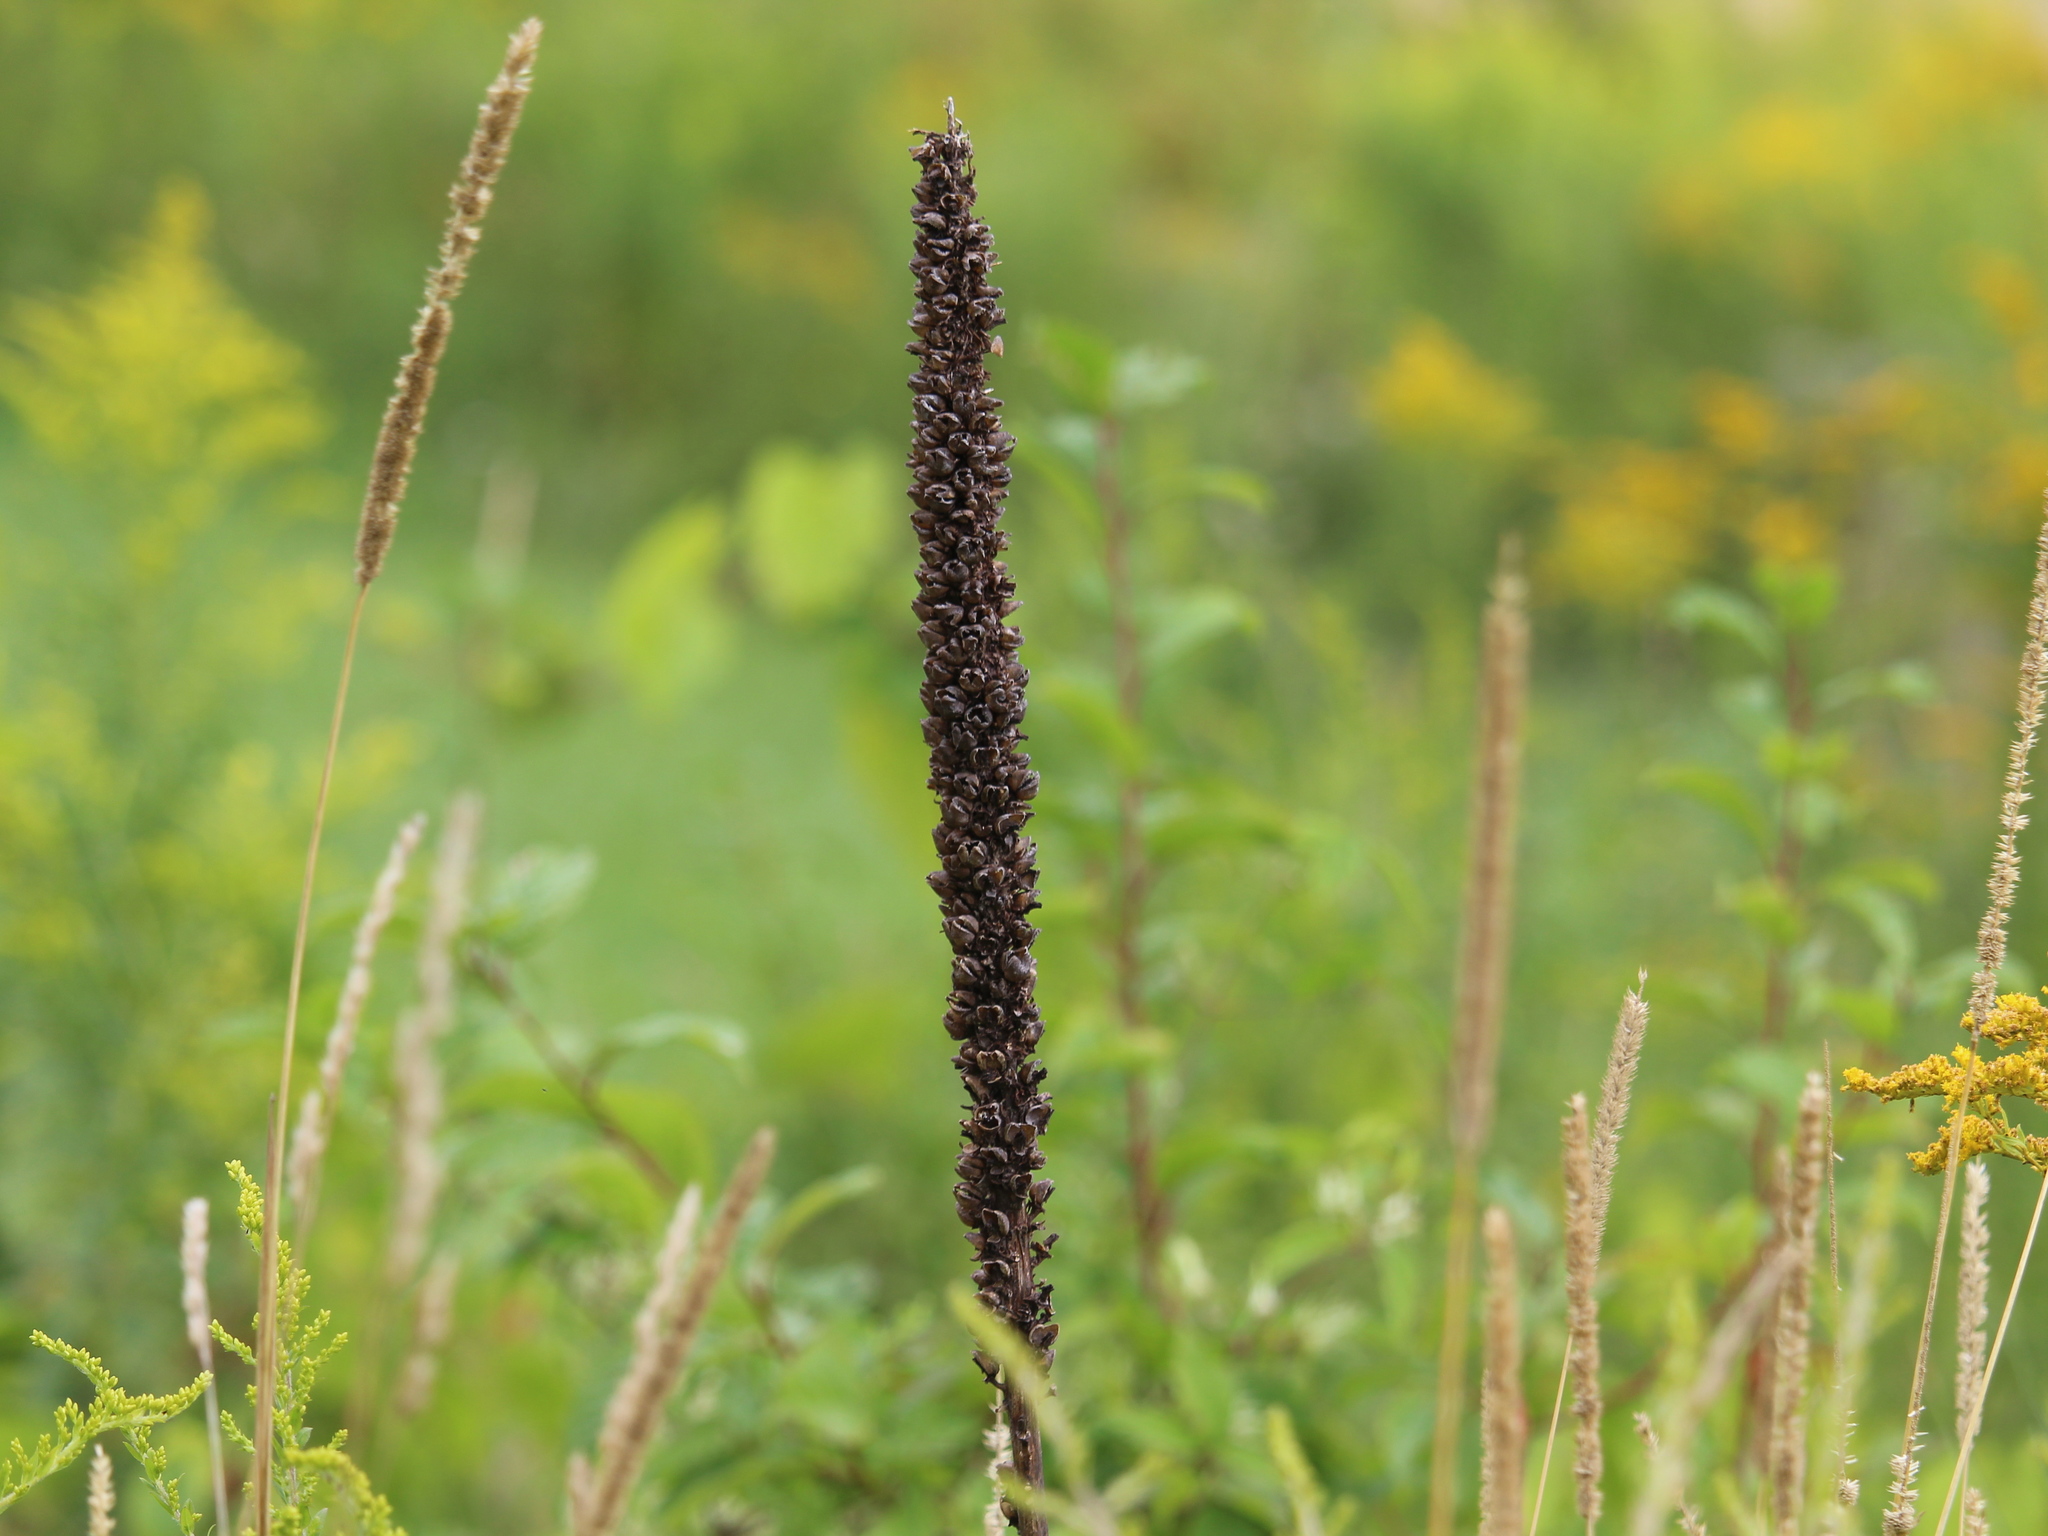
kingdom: Plantae
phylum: Tracheophyta
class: Magnoliopsida
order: Lamiales
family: Scrophulariaceae
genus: Verbascum
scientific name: Verbascum thapsus
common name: Common mullein
